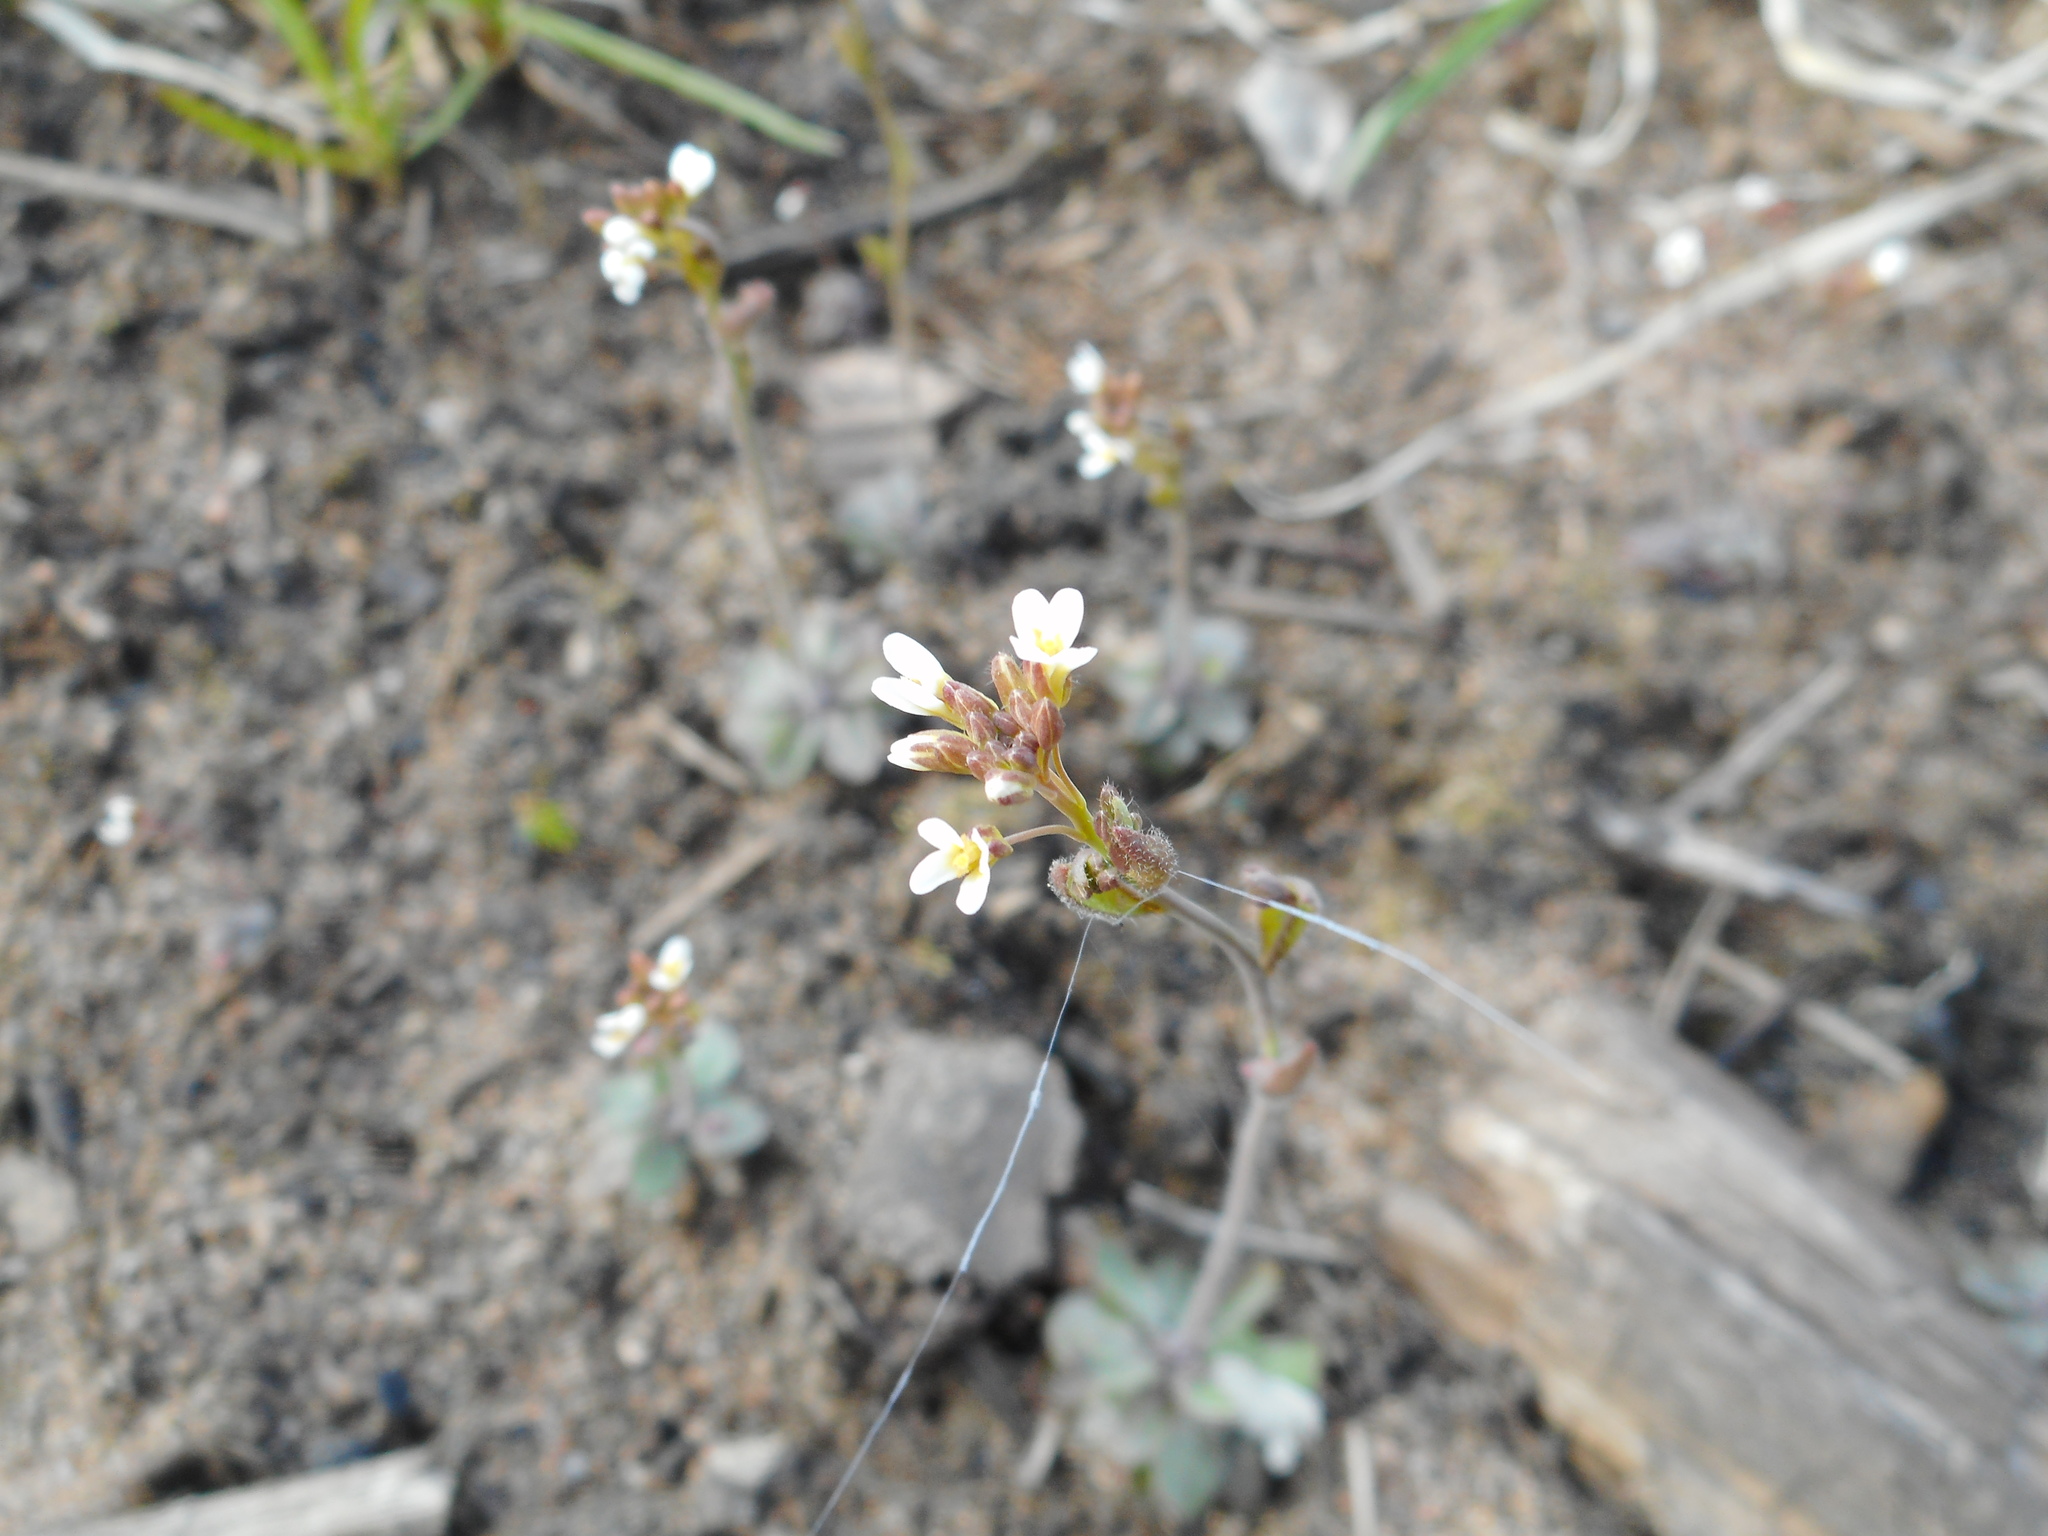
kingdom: Plantae
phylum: Tracheophyta
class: Magnoliopsida
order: Brassicales
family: Brassicaceae
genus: Arabidopsis
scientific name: Arabidopsis thaliana
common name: Thale cress
